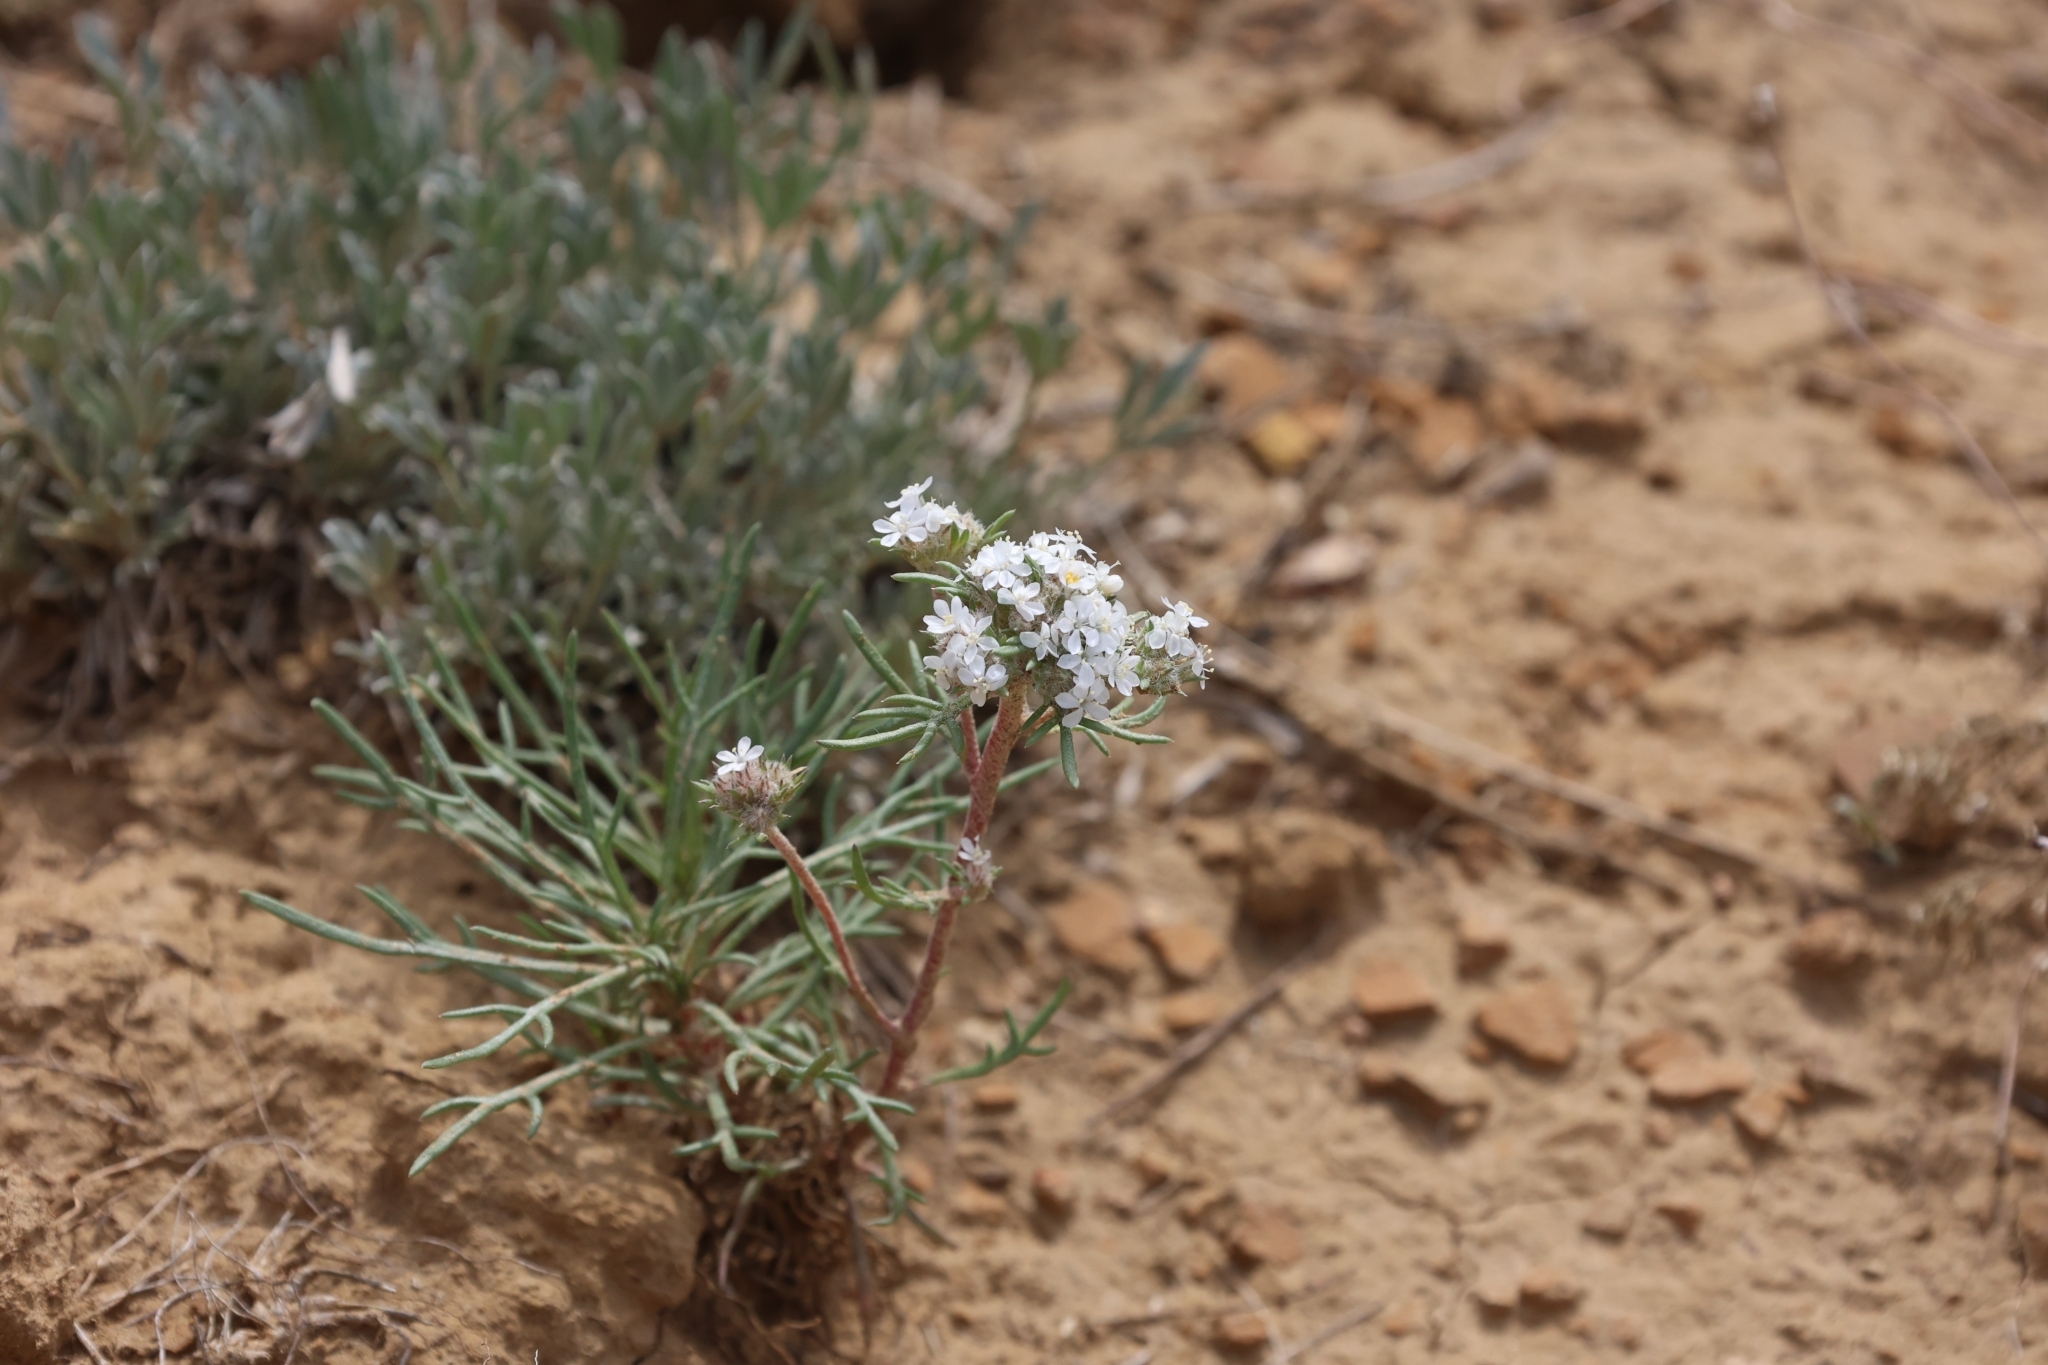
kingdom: Plantae
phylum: Tracheophyta
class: Magnoliopsida
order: Ericales
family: Polemoniaceae
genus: Ipomopsis
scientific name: Ipomopsis congesta
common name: Ball-head gilia
